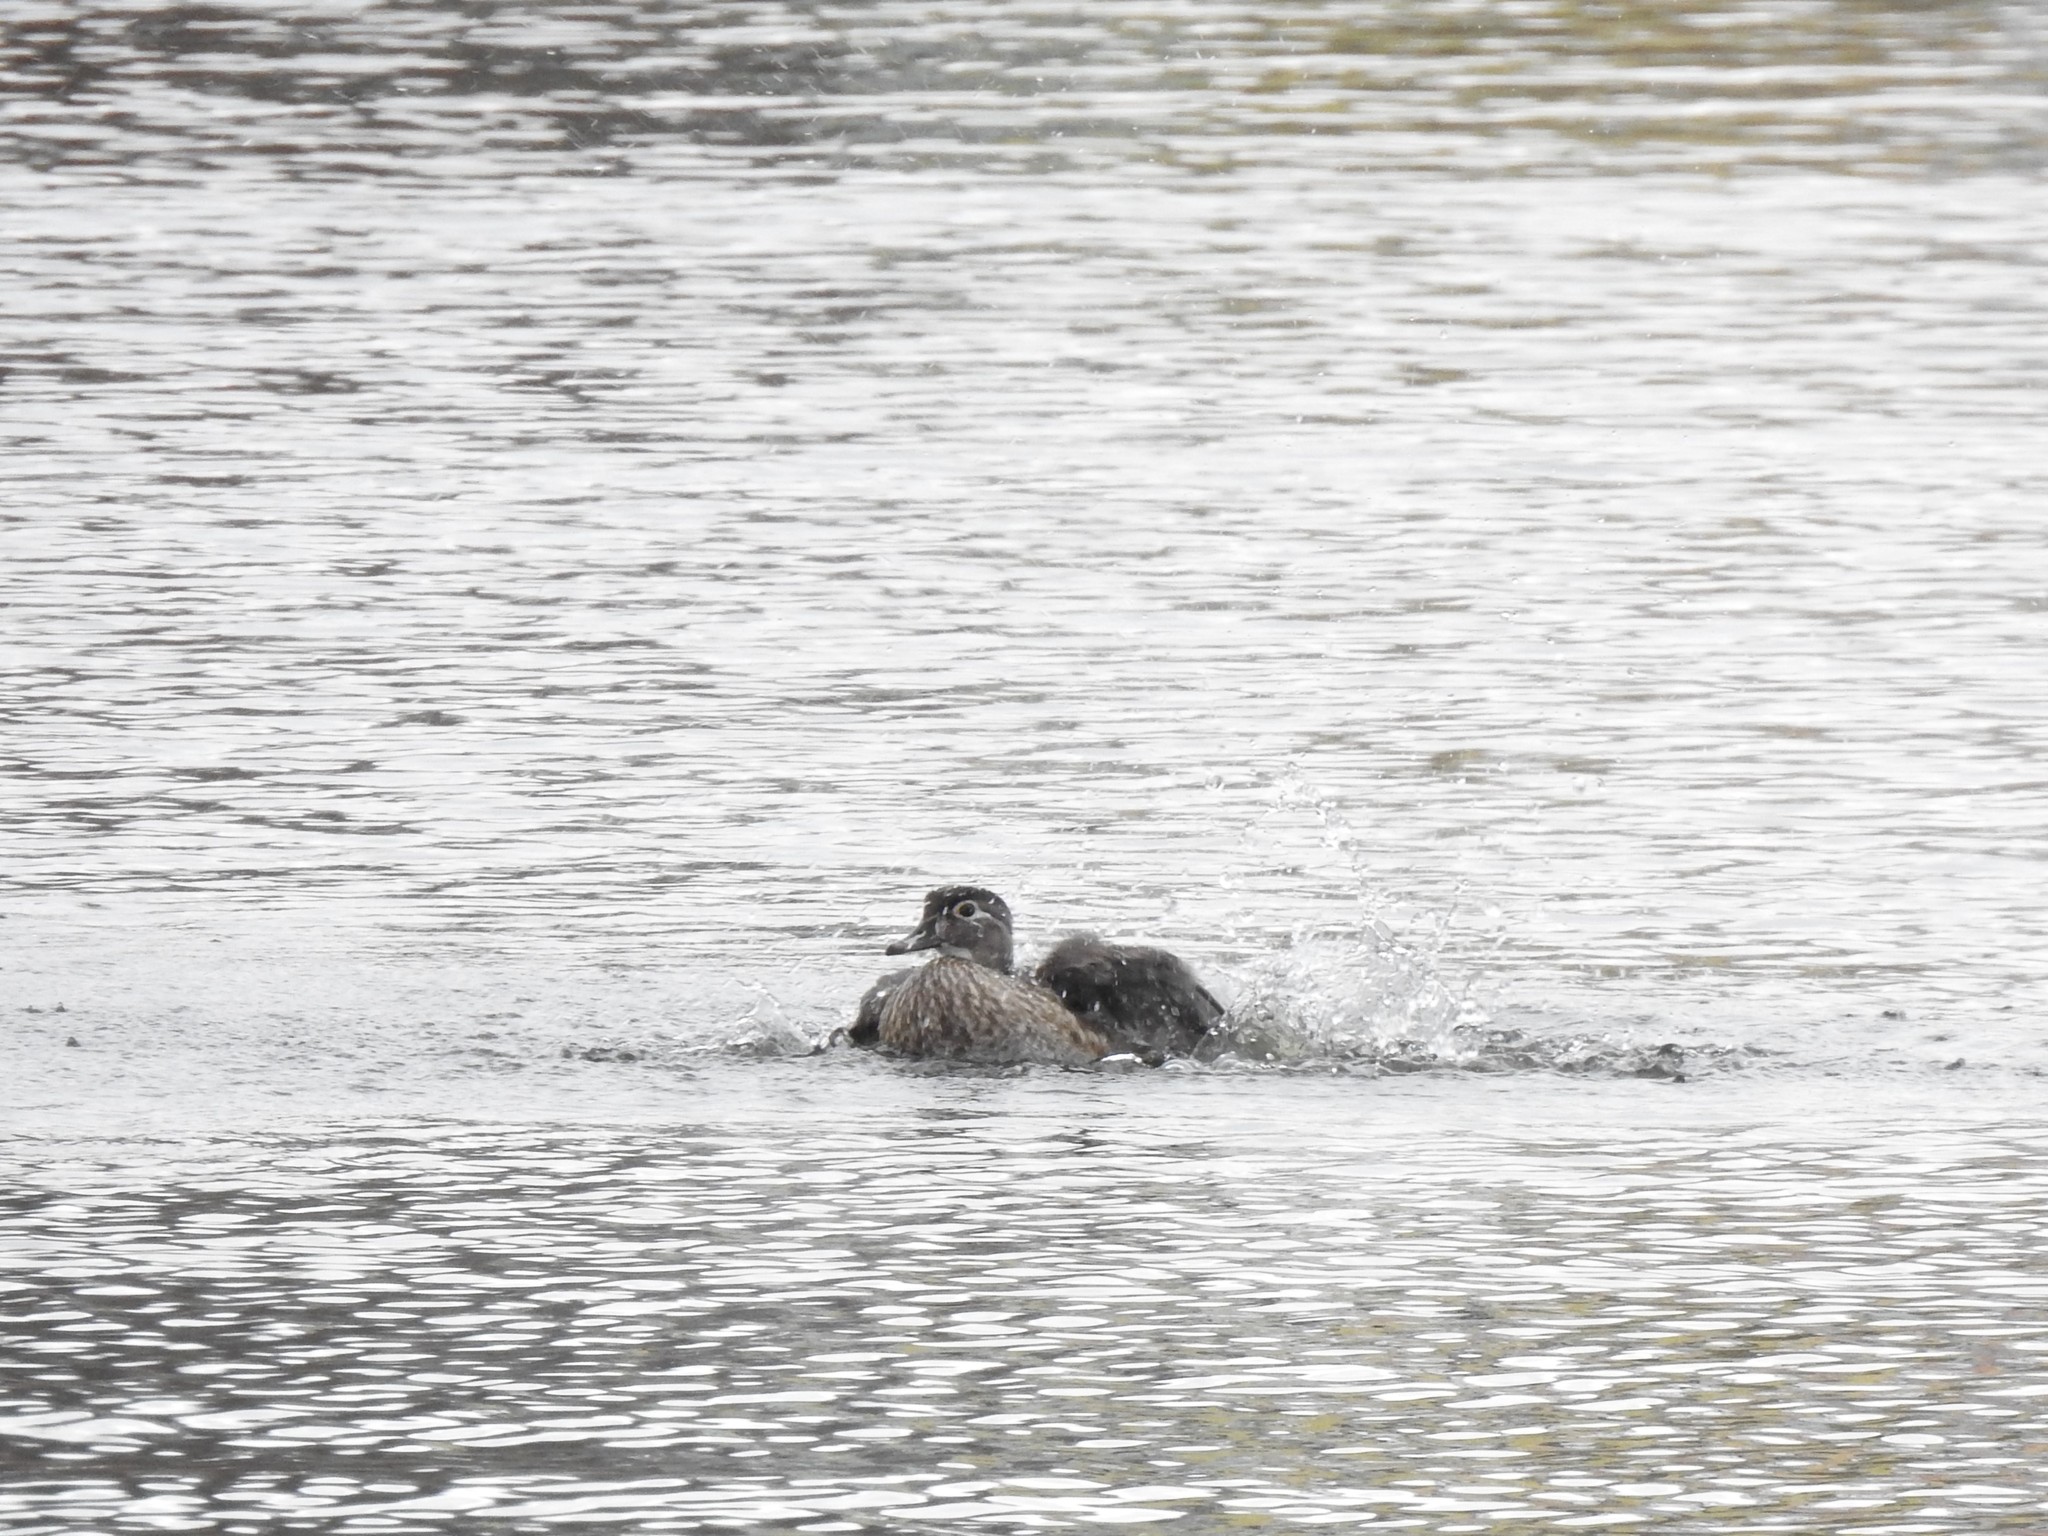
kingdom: Animalia
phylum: Chordata
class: Aves
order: Anseriformes
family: Anatidae
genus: Aix
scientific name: Aix sponsa
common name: Wood duck
